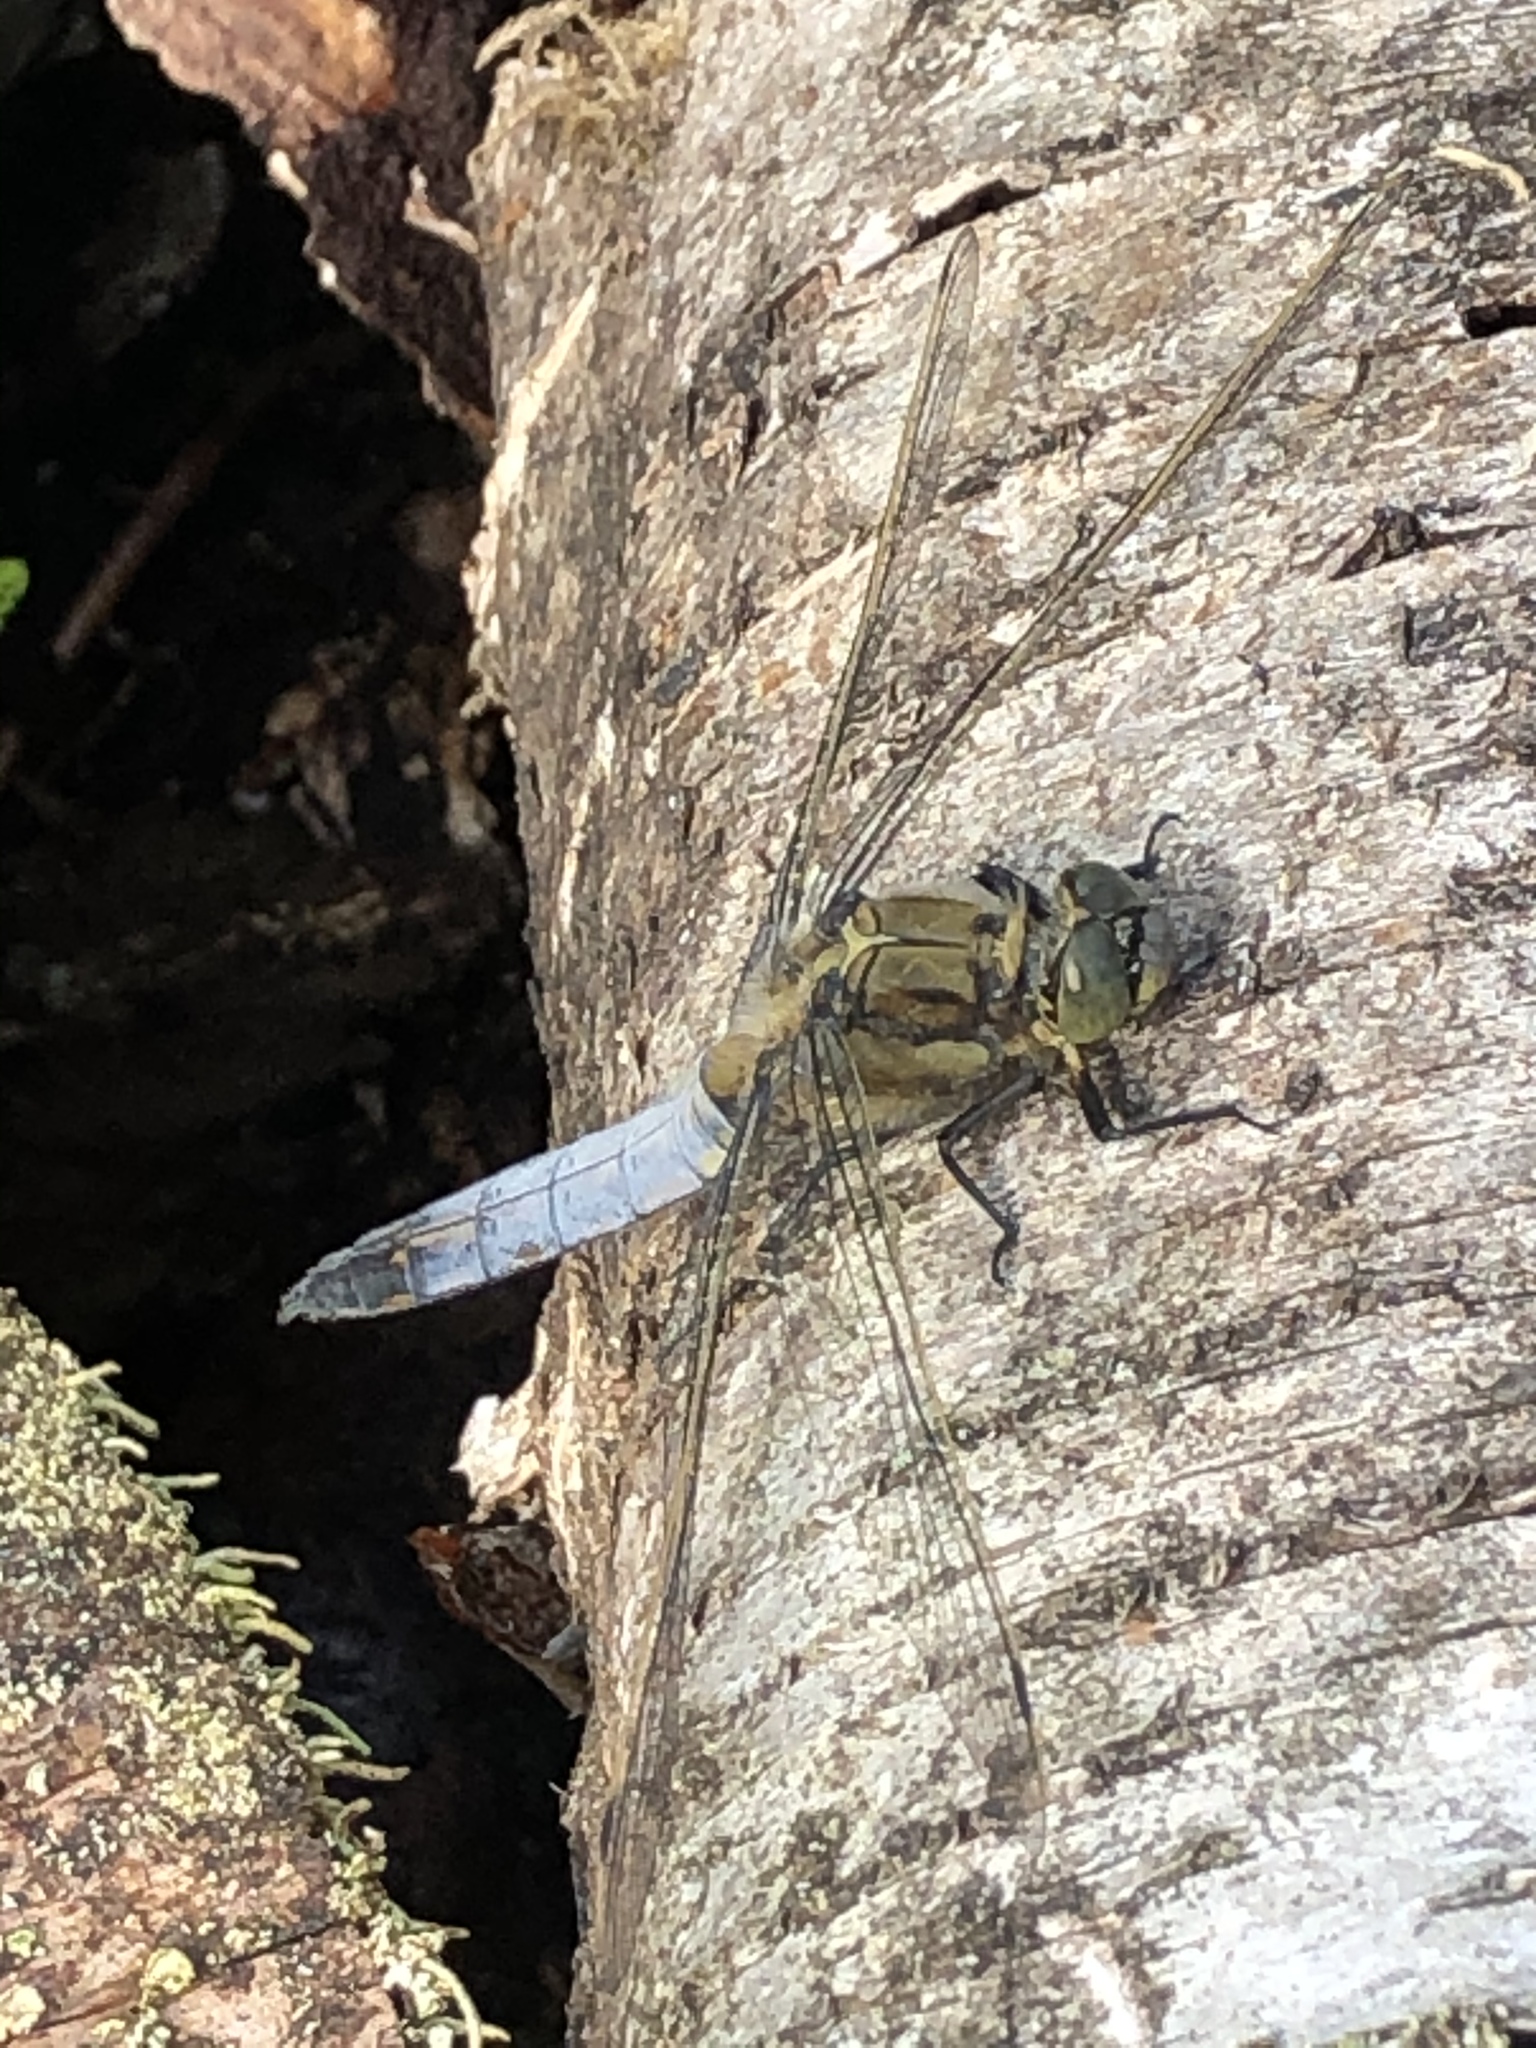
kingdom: Animalia
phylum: Arthropoda
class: Insecta
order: Odonata
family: Libellulidae
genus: Orthetrum
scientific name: Orthetrum cancellatum
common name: Black-tailed skimmer
